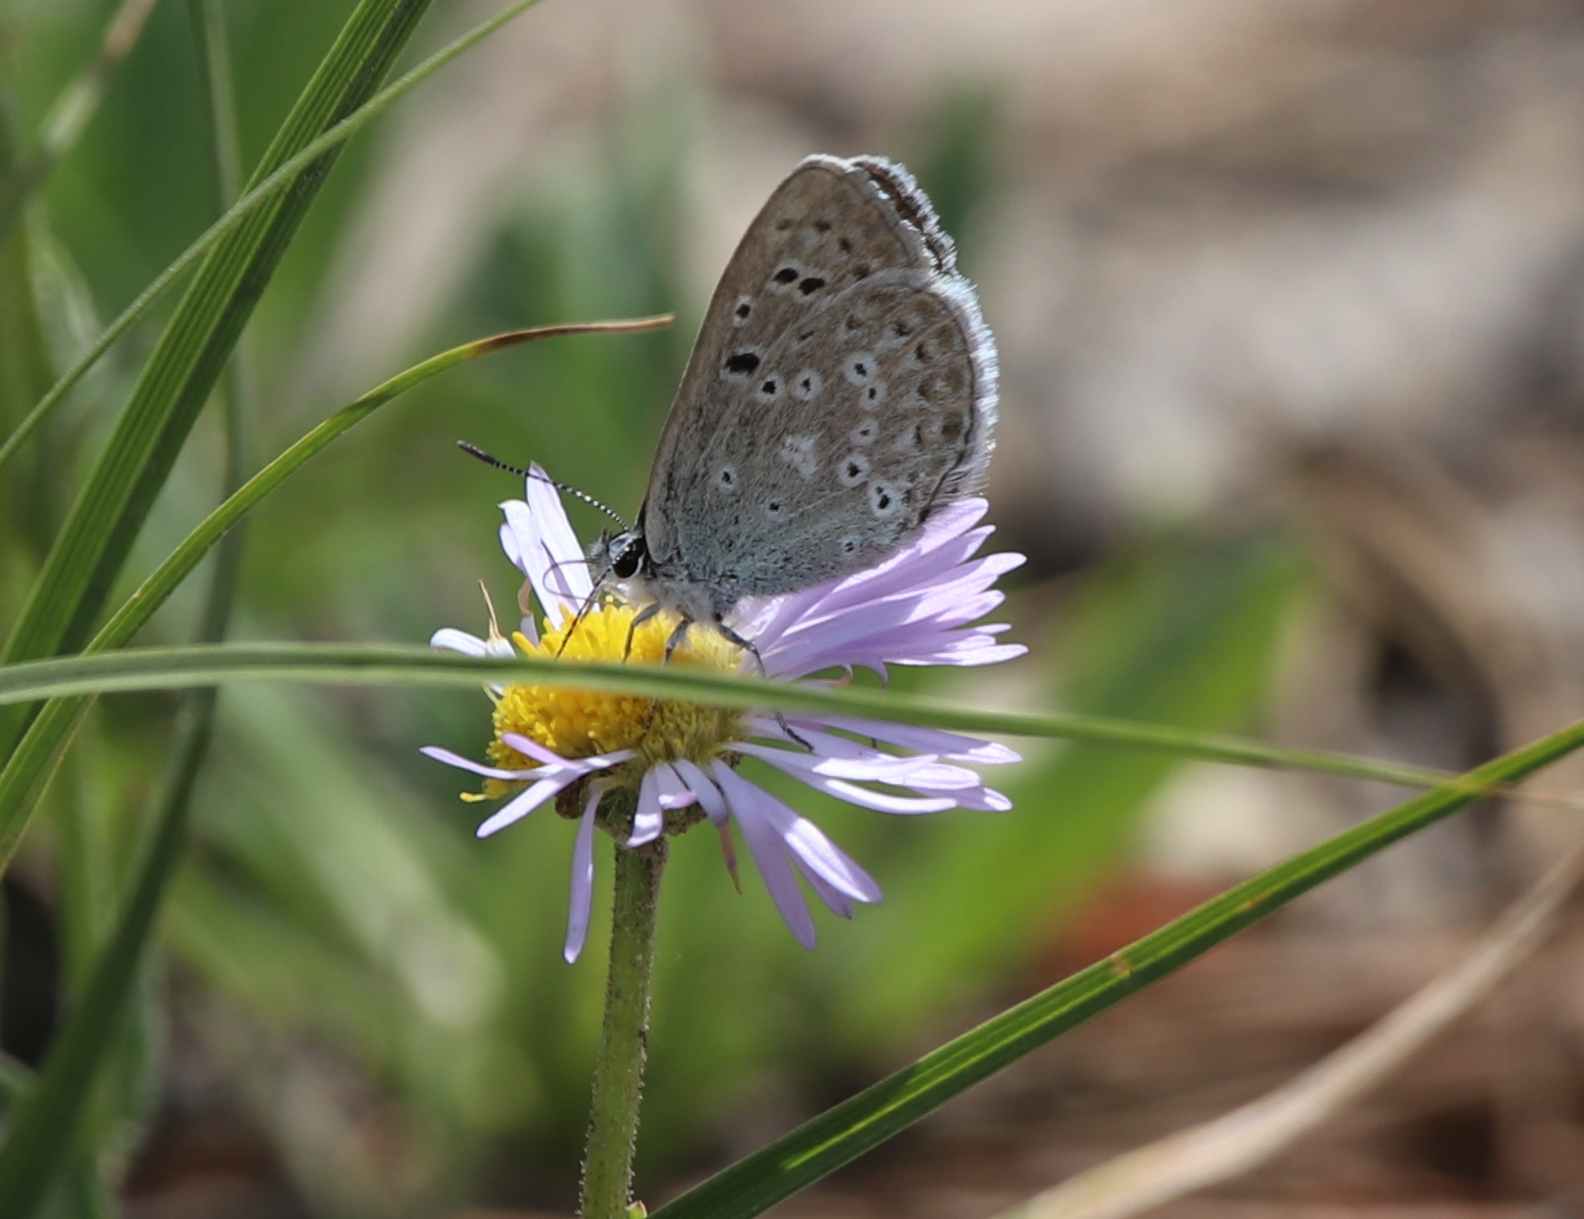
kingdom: Animalia
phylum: Arthropoda
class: Insecta
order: Lepidoptera
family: Lycaenidae
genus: Icaricia
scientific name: Icaricia icarioides
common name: Boisduval's blue
